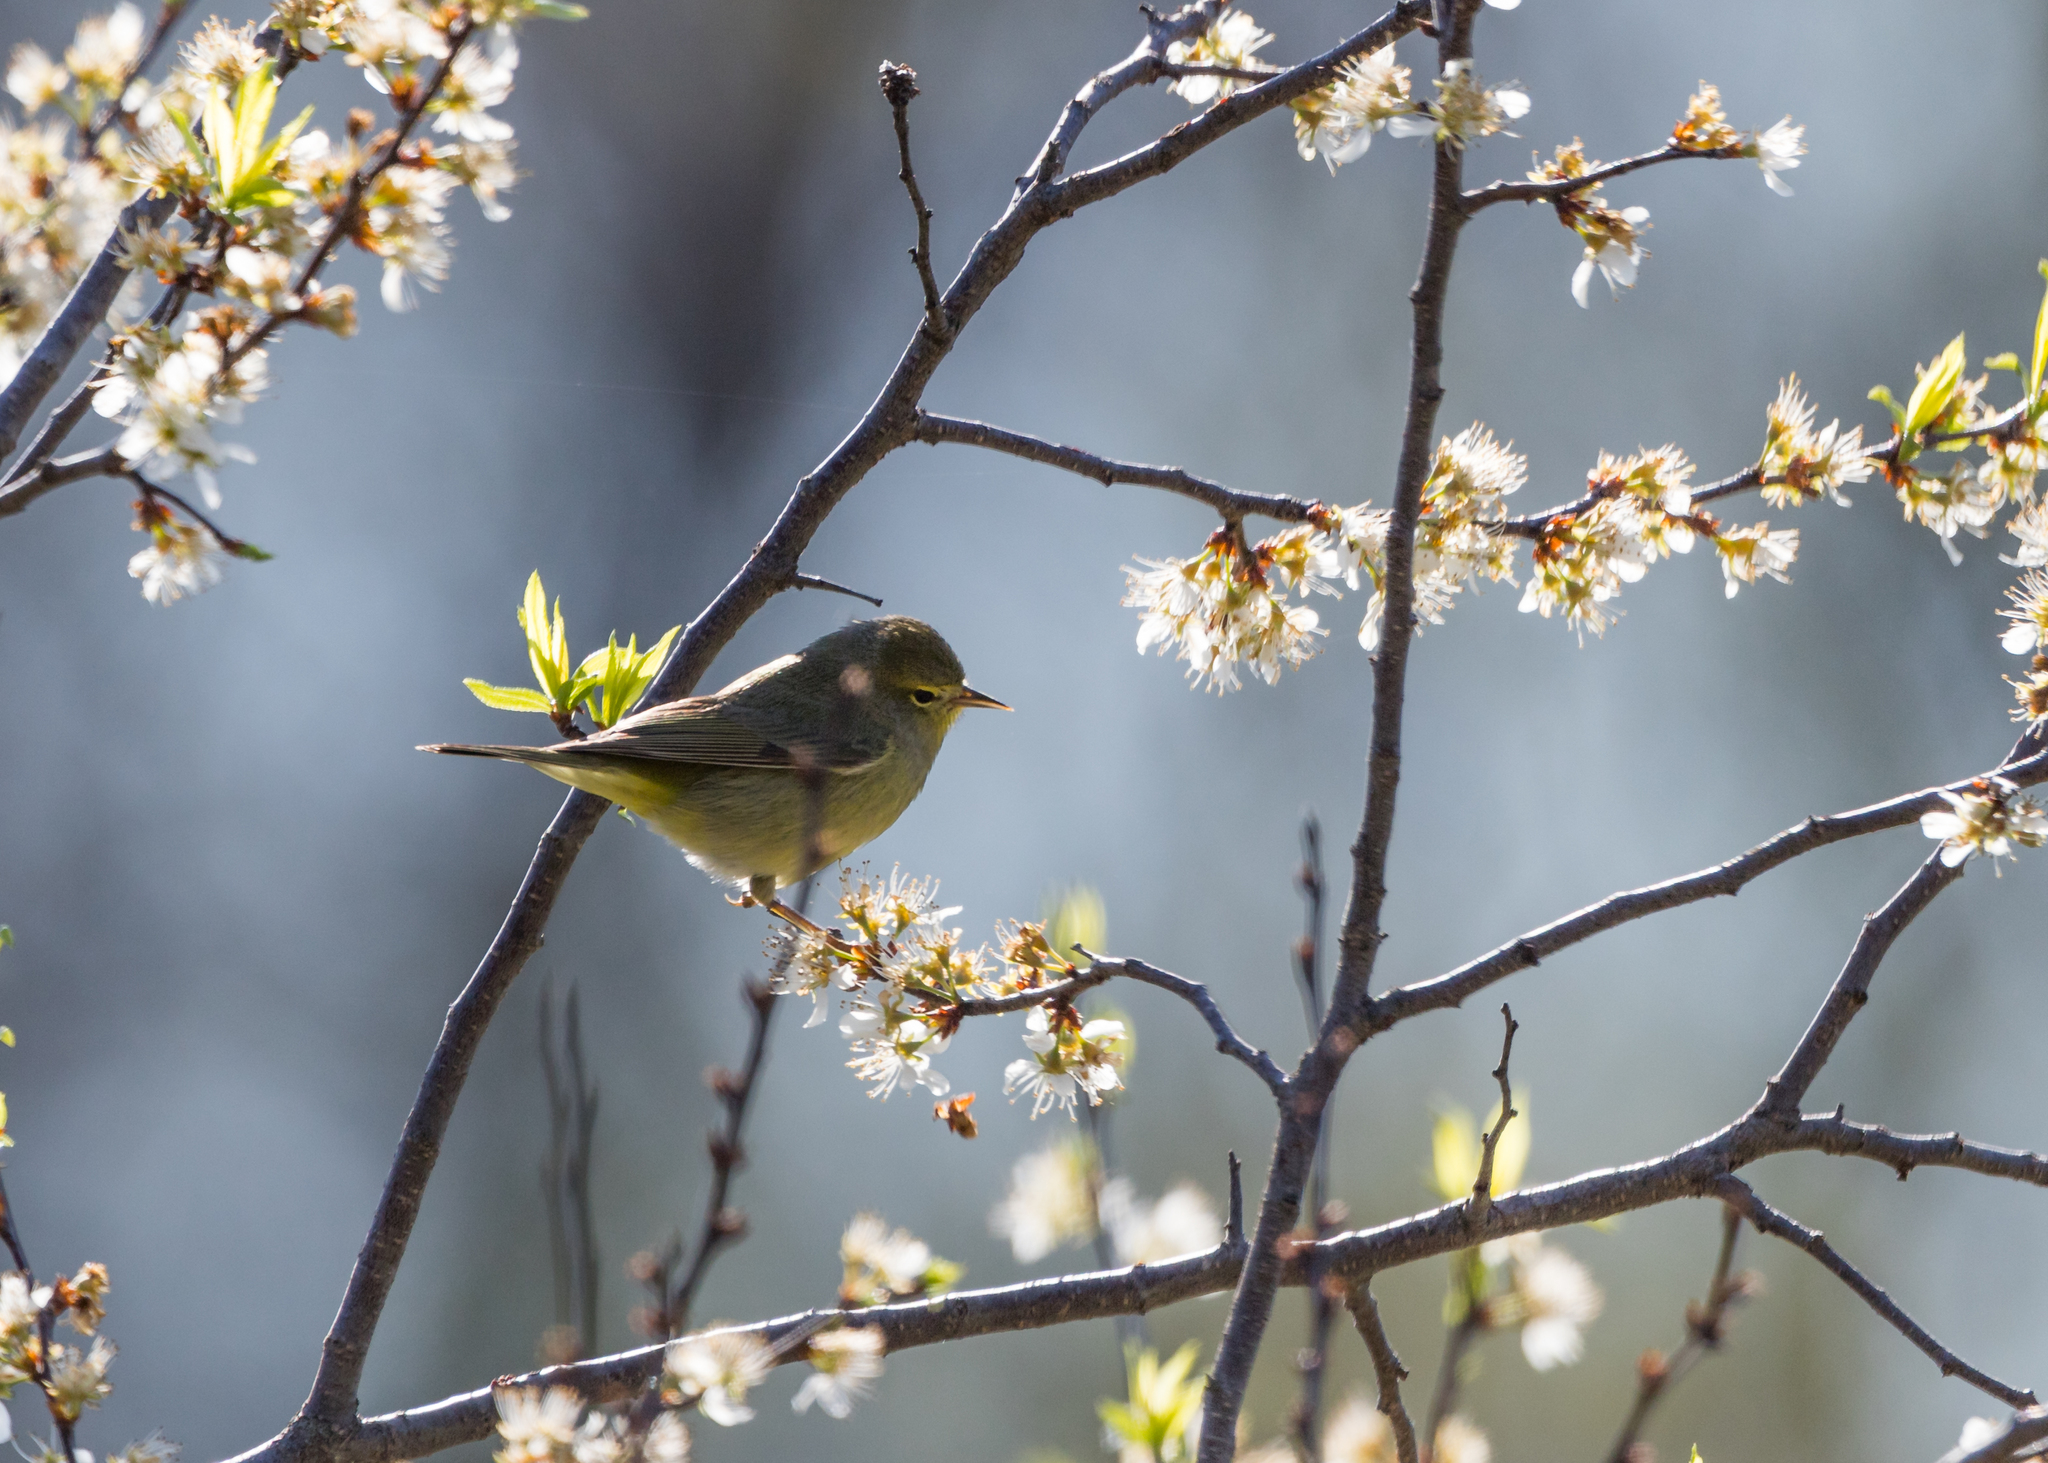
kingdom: Animalia
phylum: Chordata
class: Aves
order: Passeriformes
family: Parulidae
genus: Leiothlypis
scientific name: Leiothlypis celata
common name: Orange-crowned warbler
